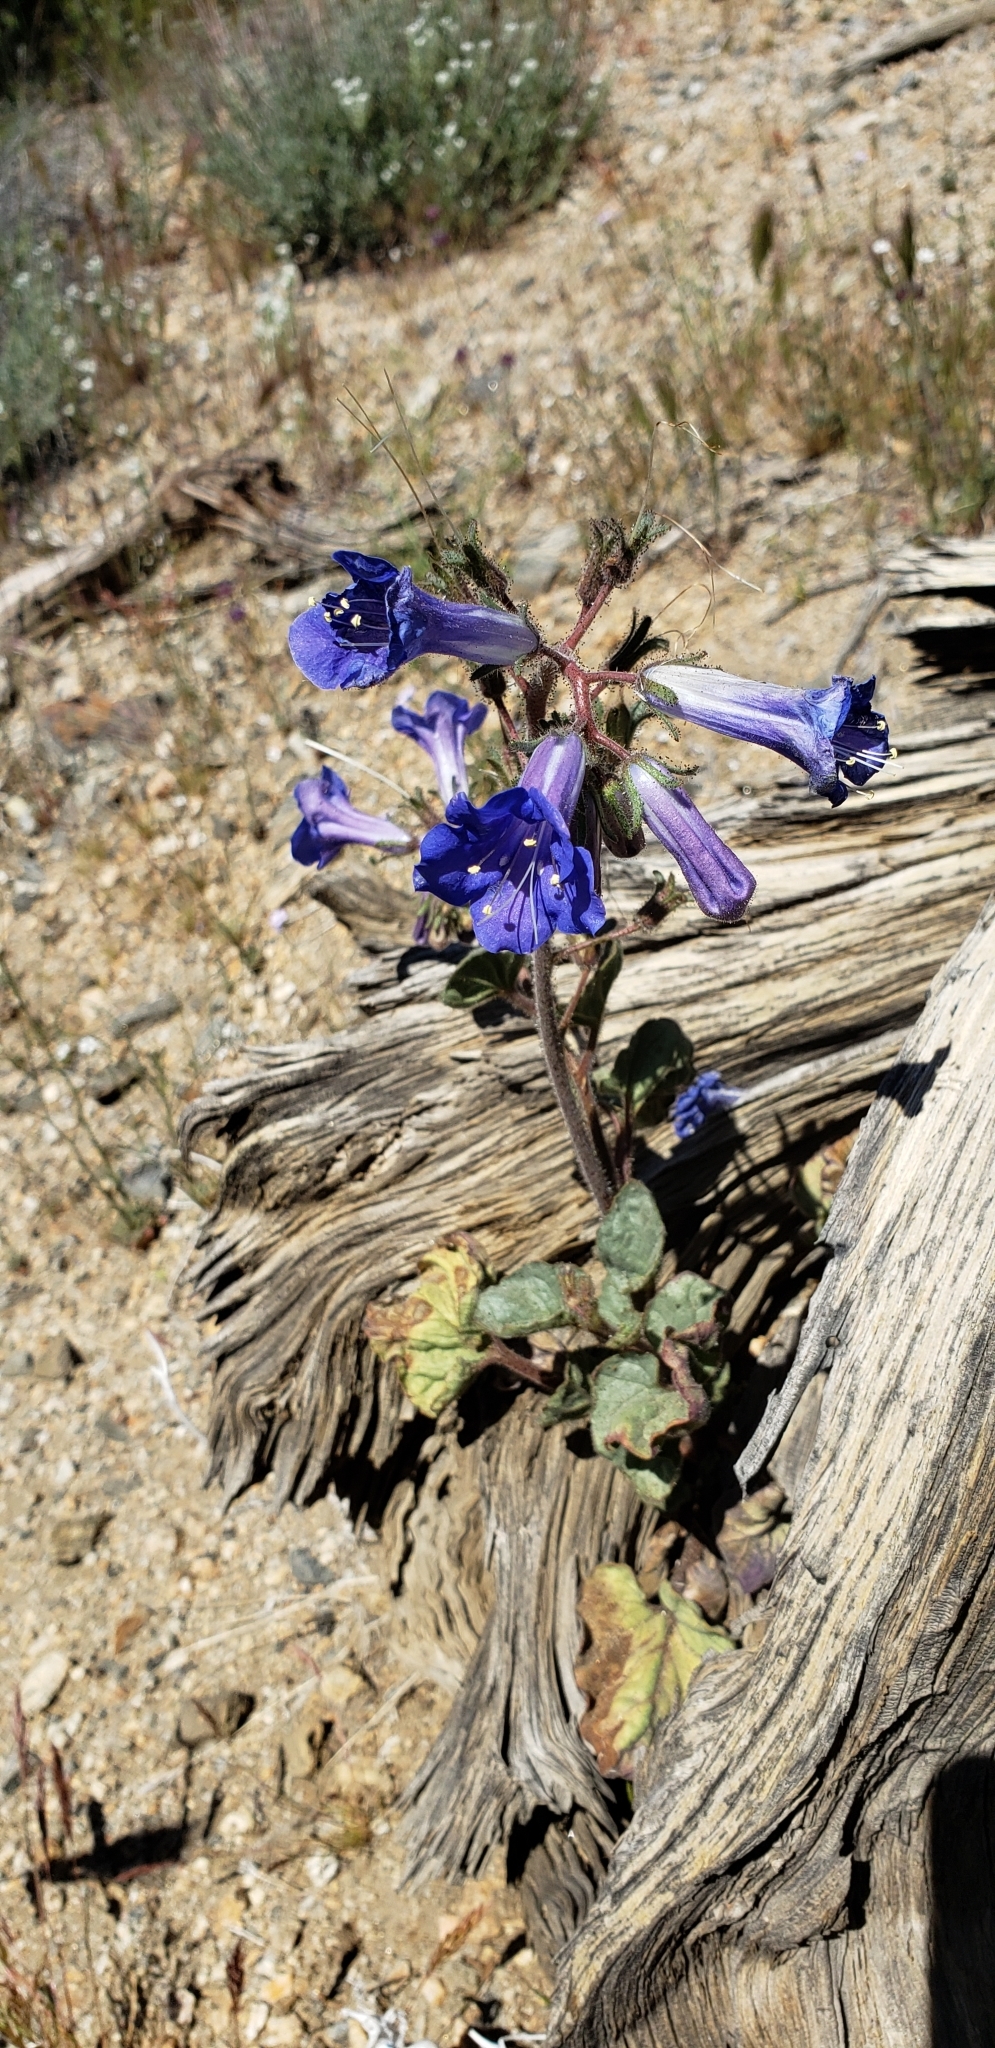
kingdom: Plantae
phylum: Tracheophyta
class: Magnoliopsida
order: Boraginales
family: Hydrophyllaceae
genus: Phacelia
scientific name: Phacelia campanularia
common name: California bluebell
